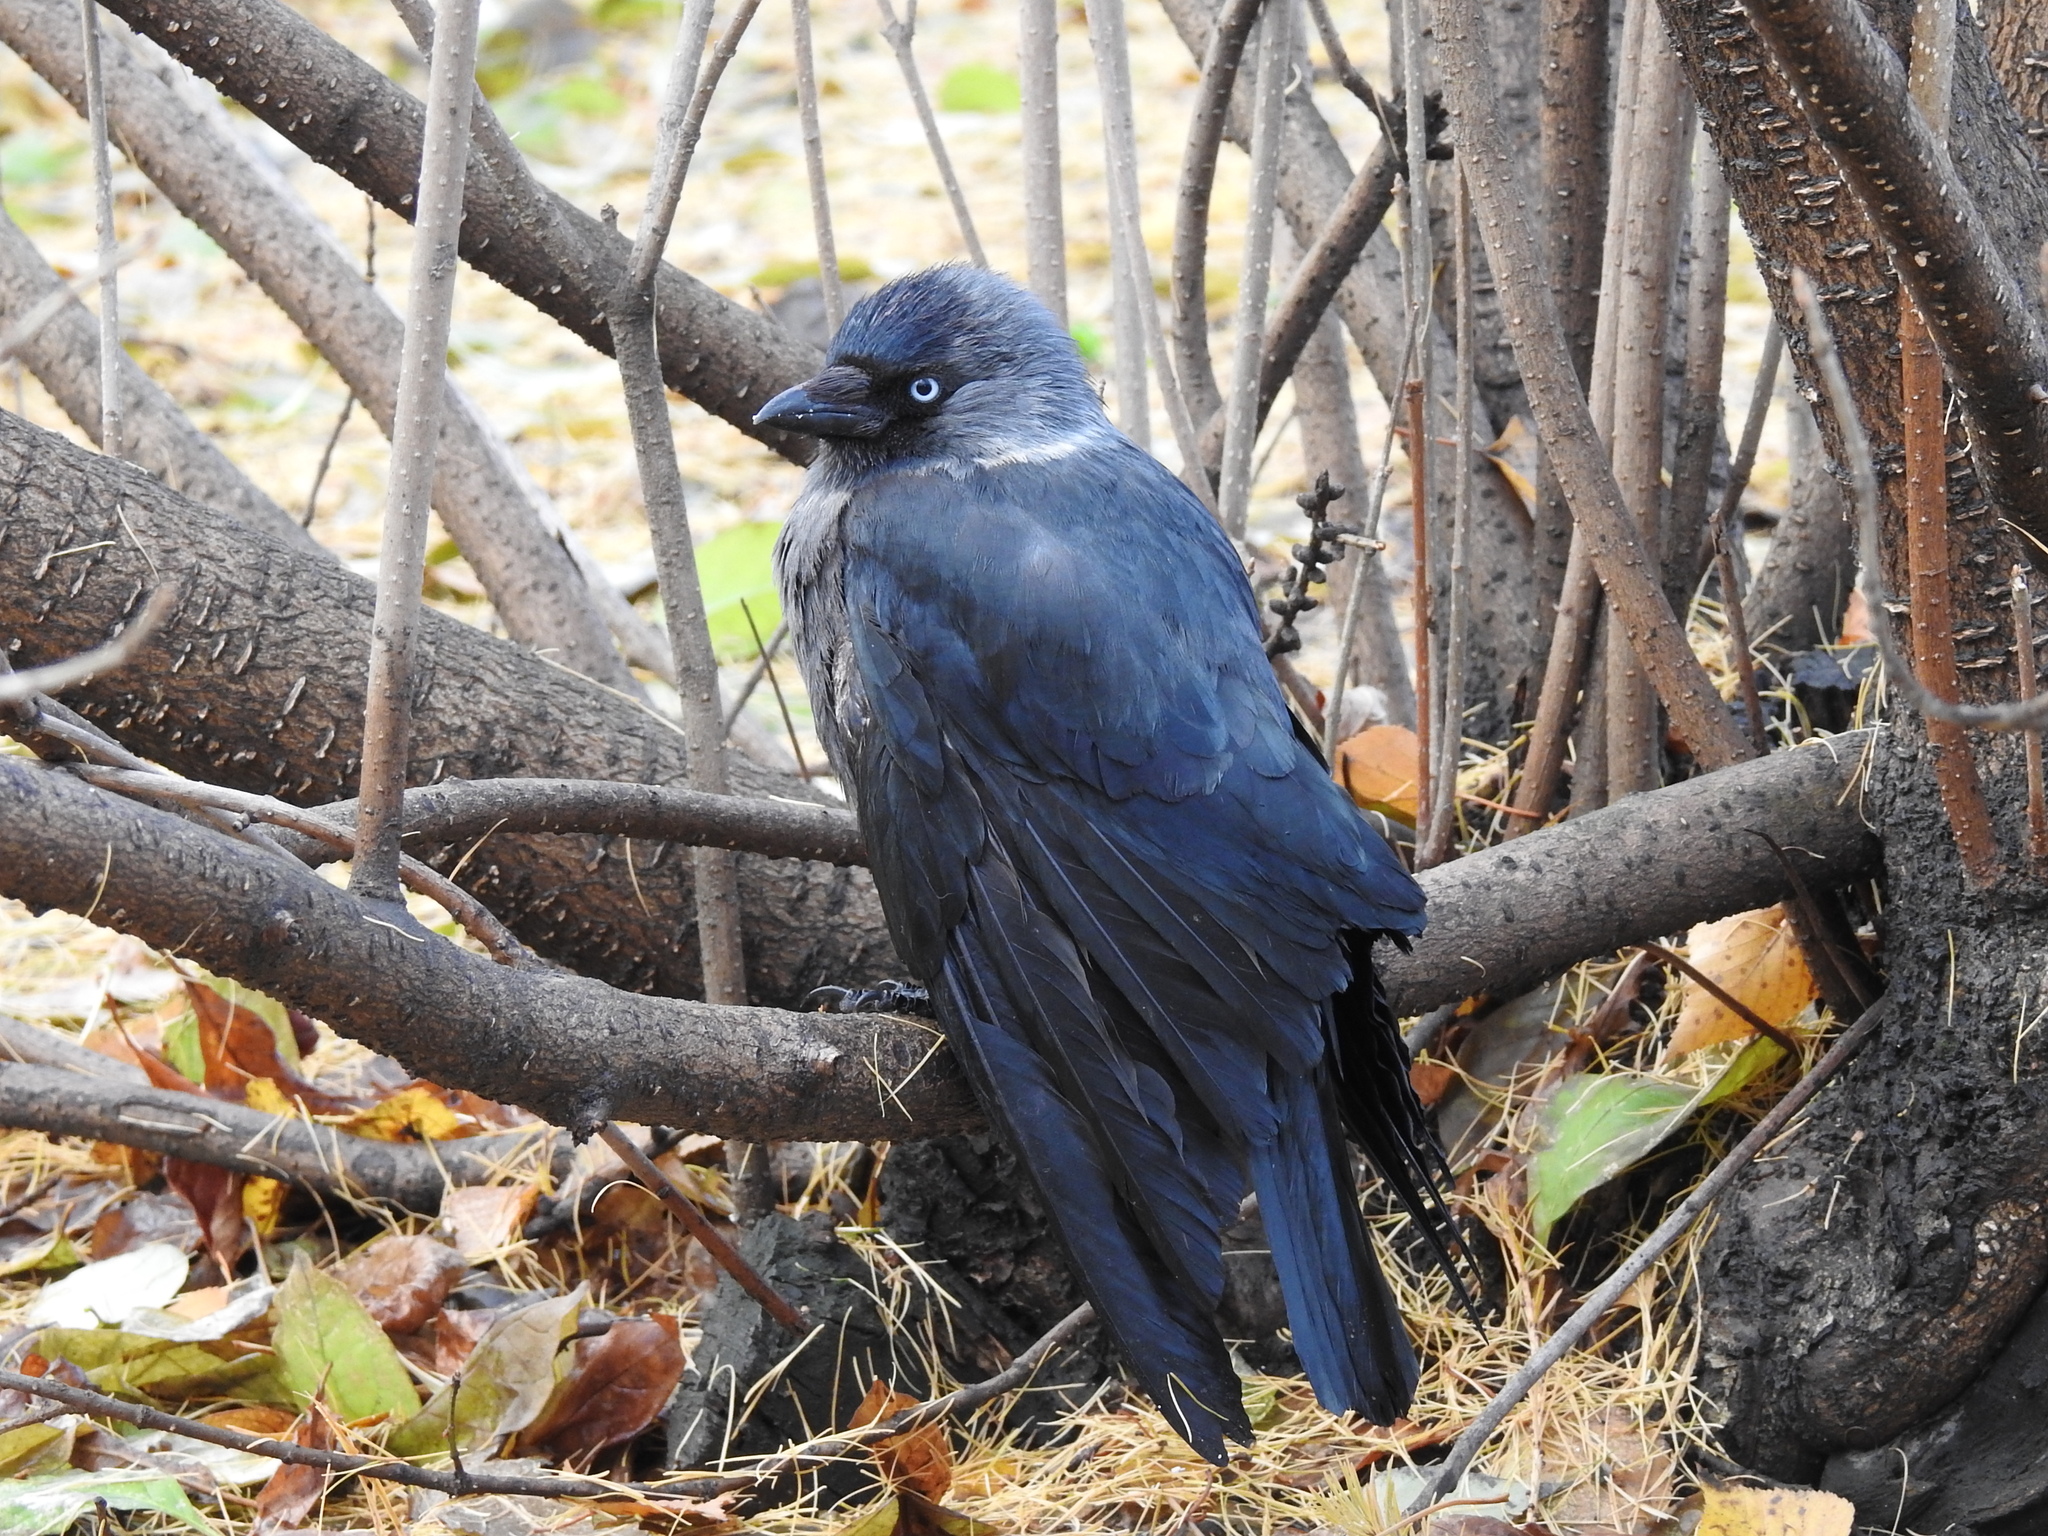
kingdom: Animalia
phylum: Chordata
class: Aves
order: Passeriformes
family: Corvidae
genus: Coloeus
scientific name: Coloeus monedula
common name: Western jackdaw
